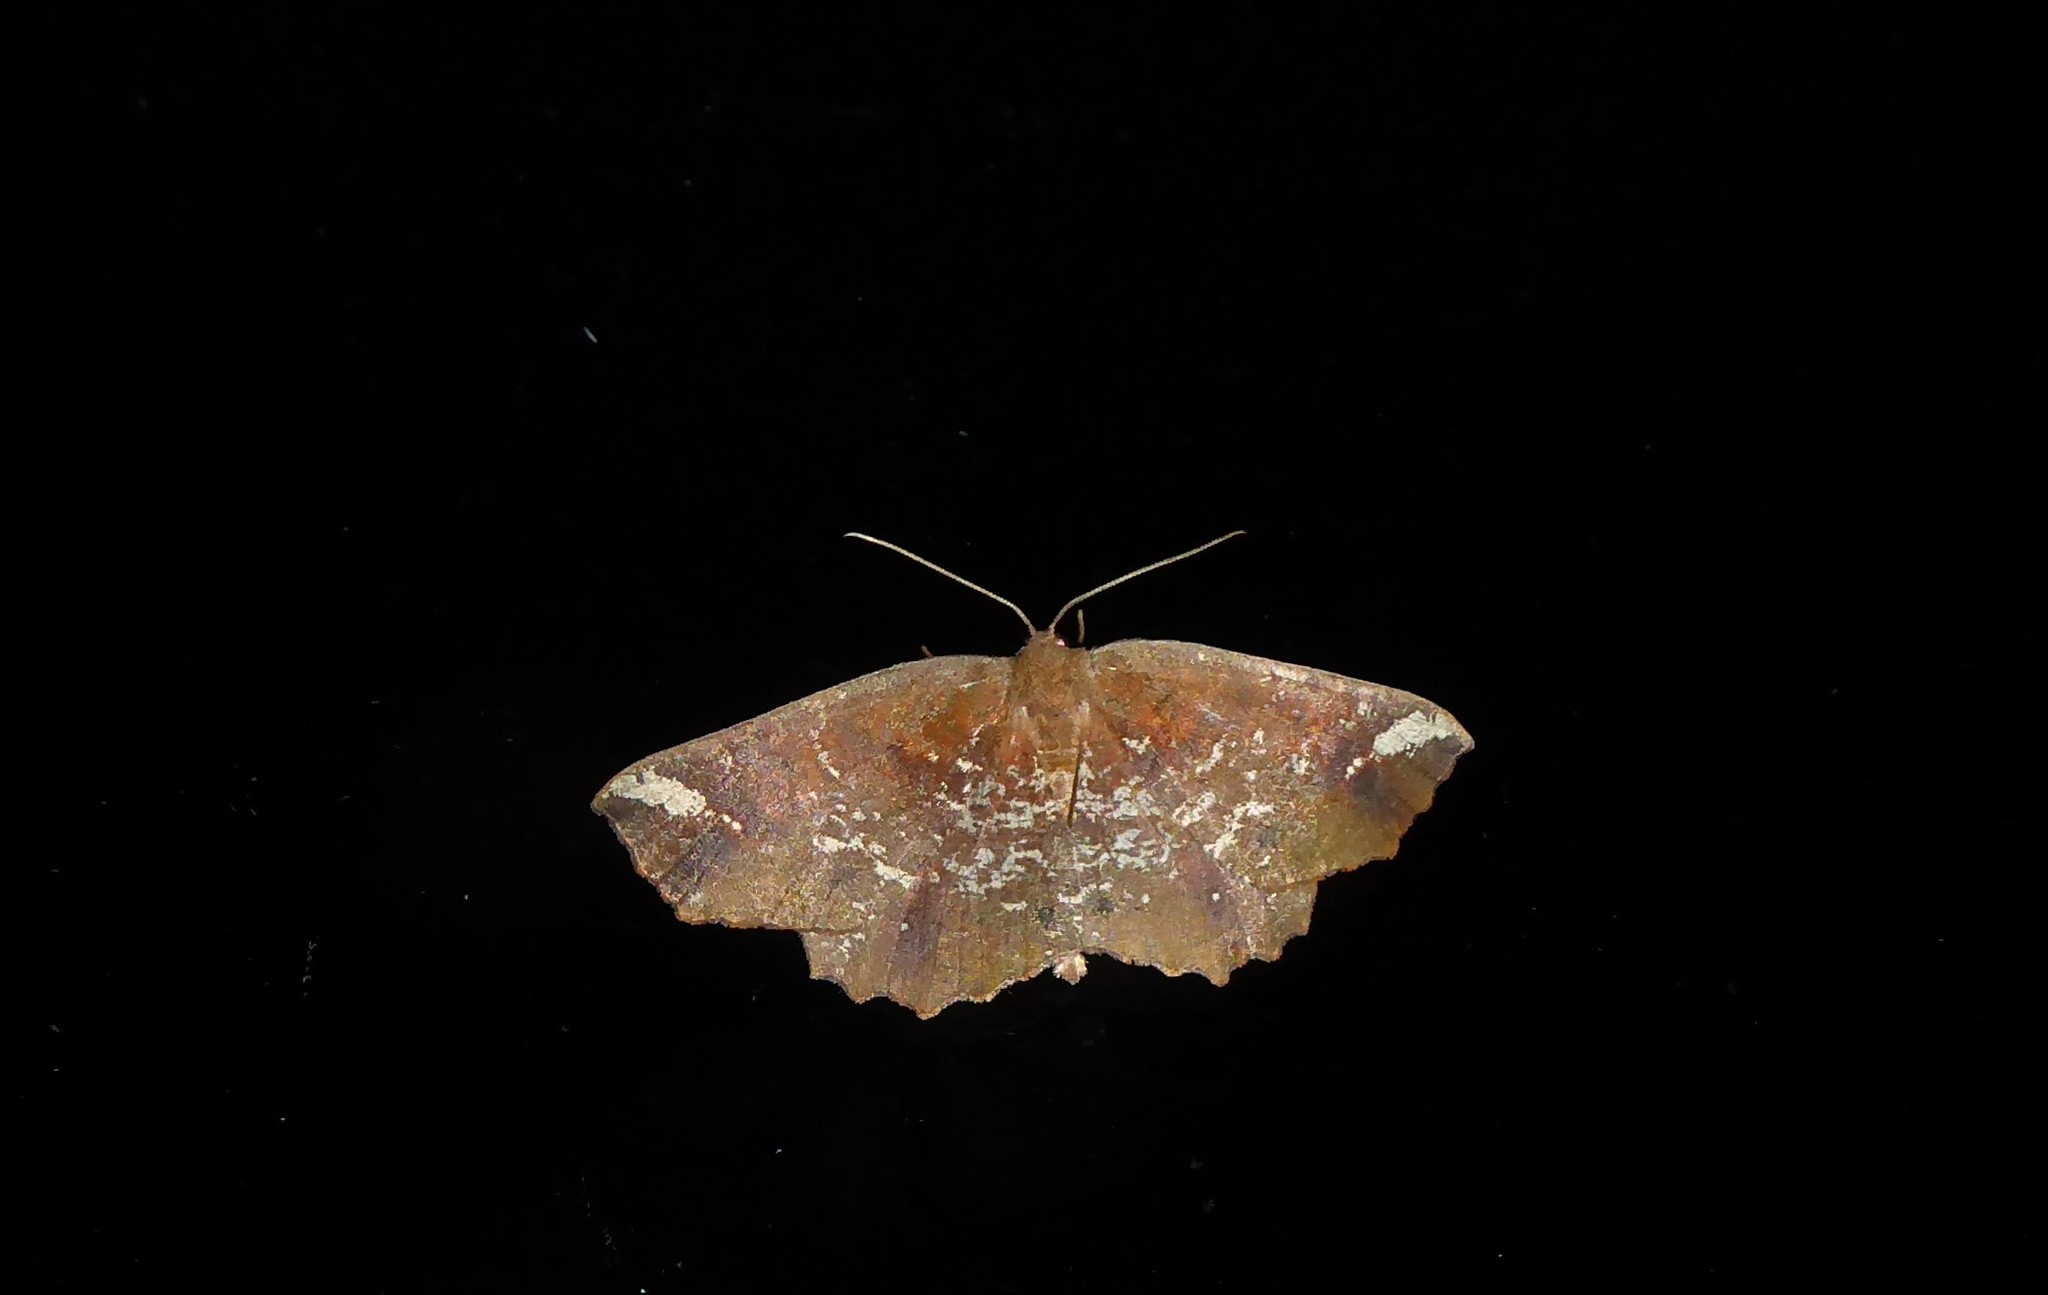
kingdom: Animalia
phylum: Arthropoda
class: Insecta
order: Lepidoptera
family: Geometridae
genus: Xyridacma
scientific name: Xyridacma ustaria
